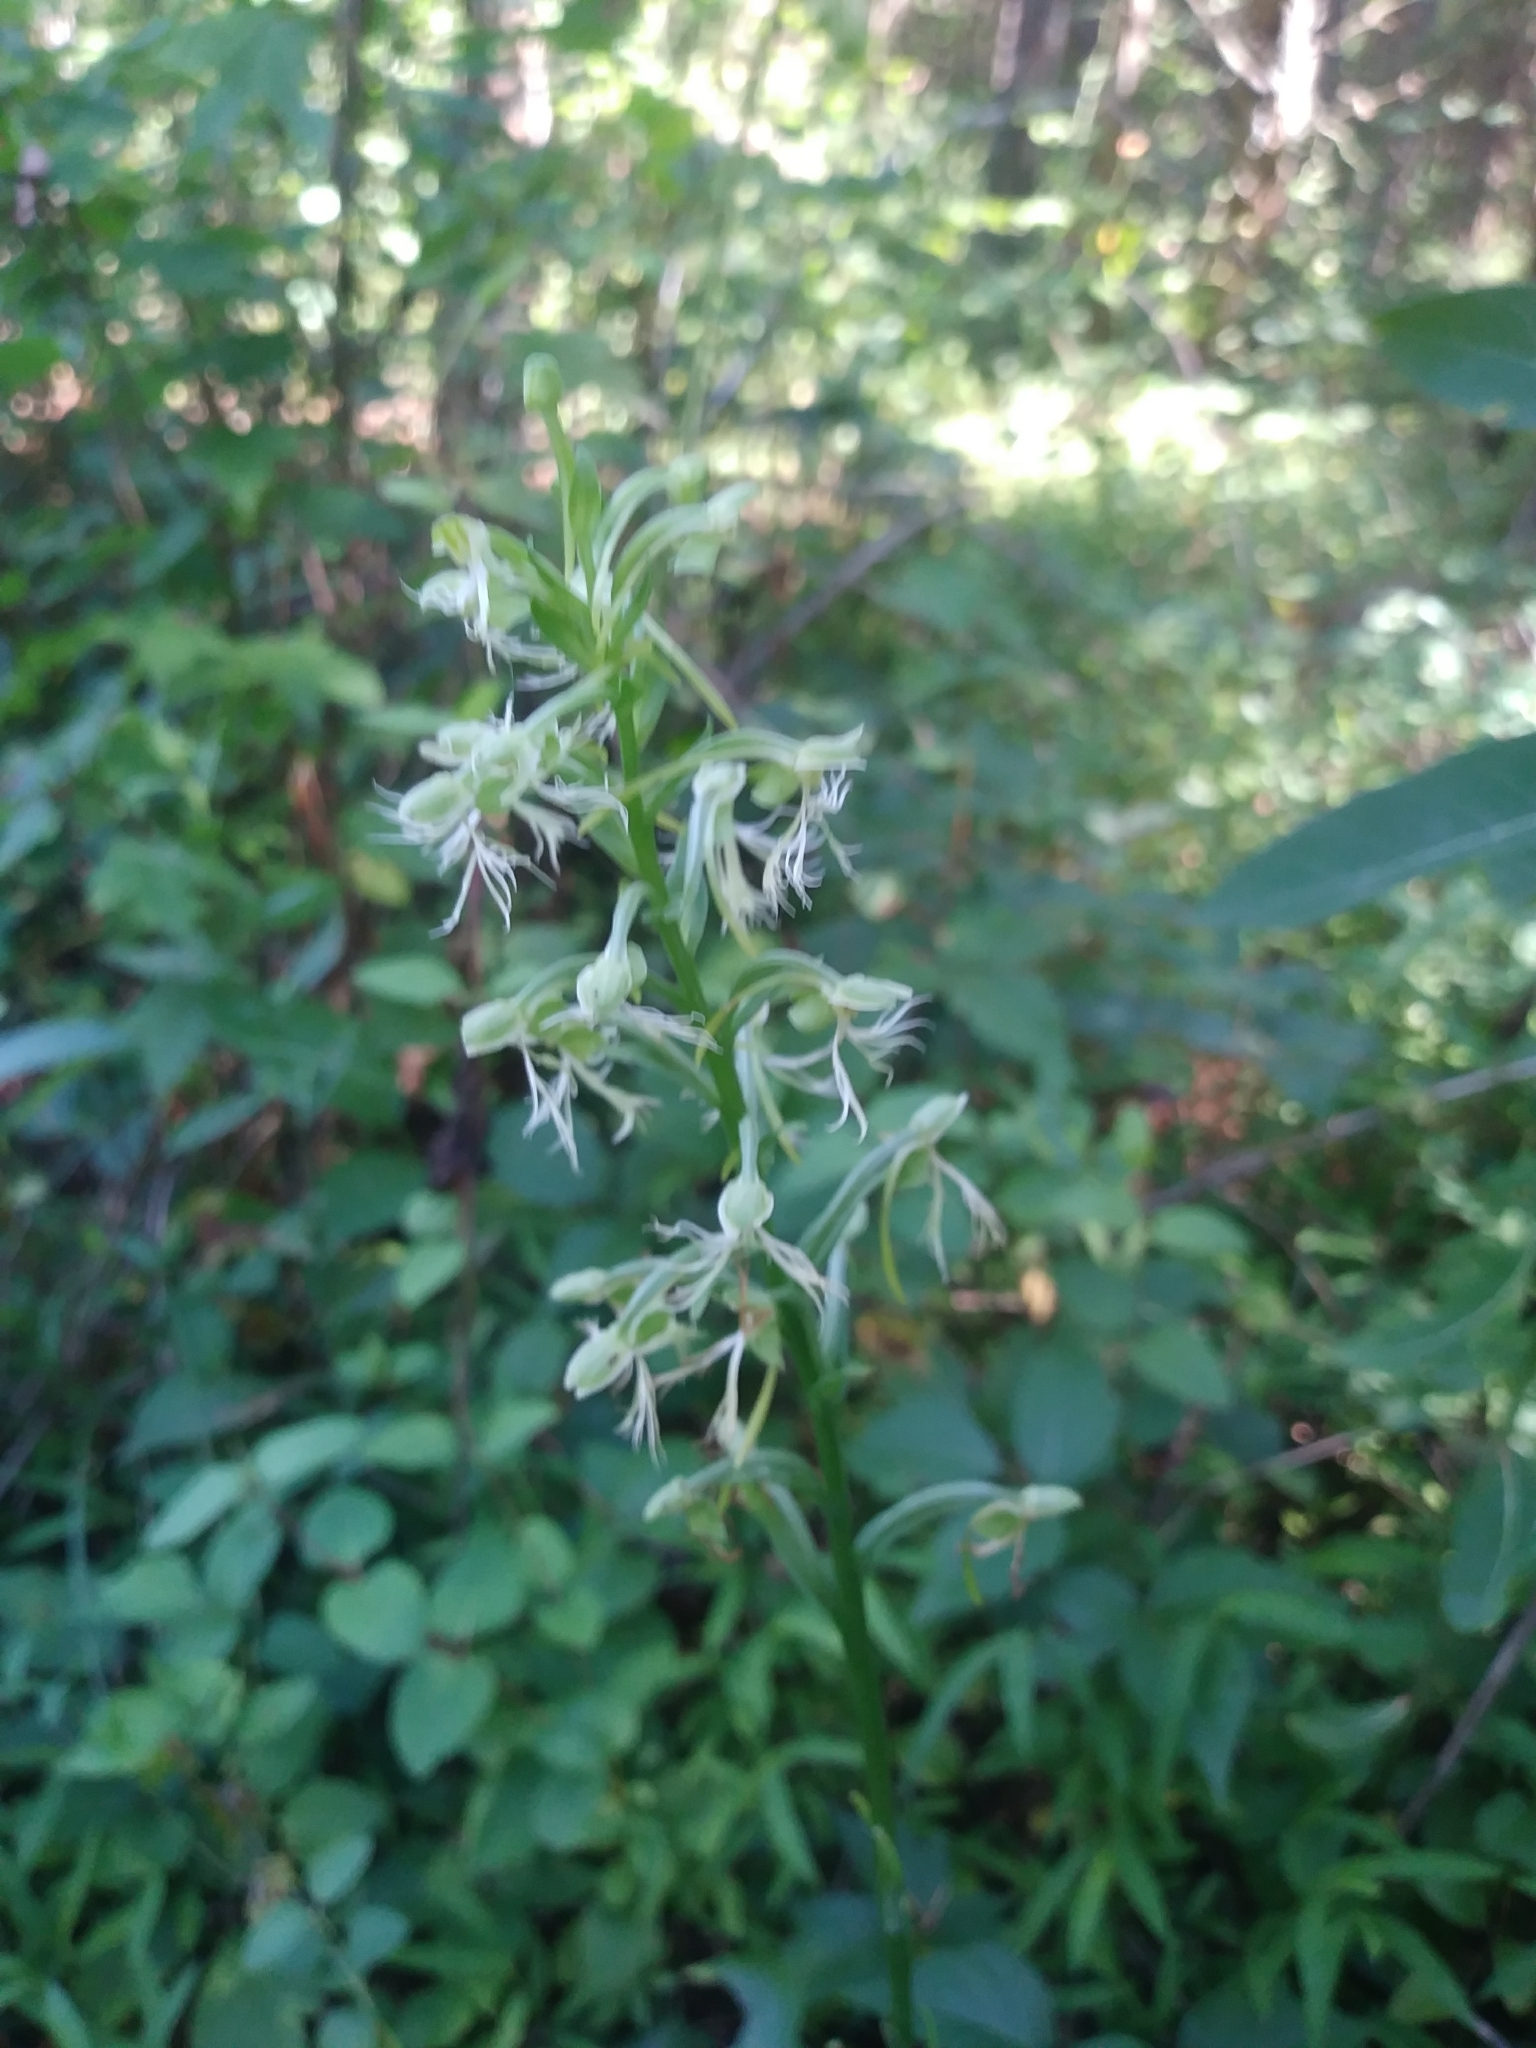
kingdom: Plantae
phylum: Tracheophyta
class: Liliopsida
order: Asparagales
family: Orchidaceae
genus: Platanthera
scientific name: Platanthera lacera
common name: Green fringed orchid
